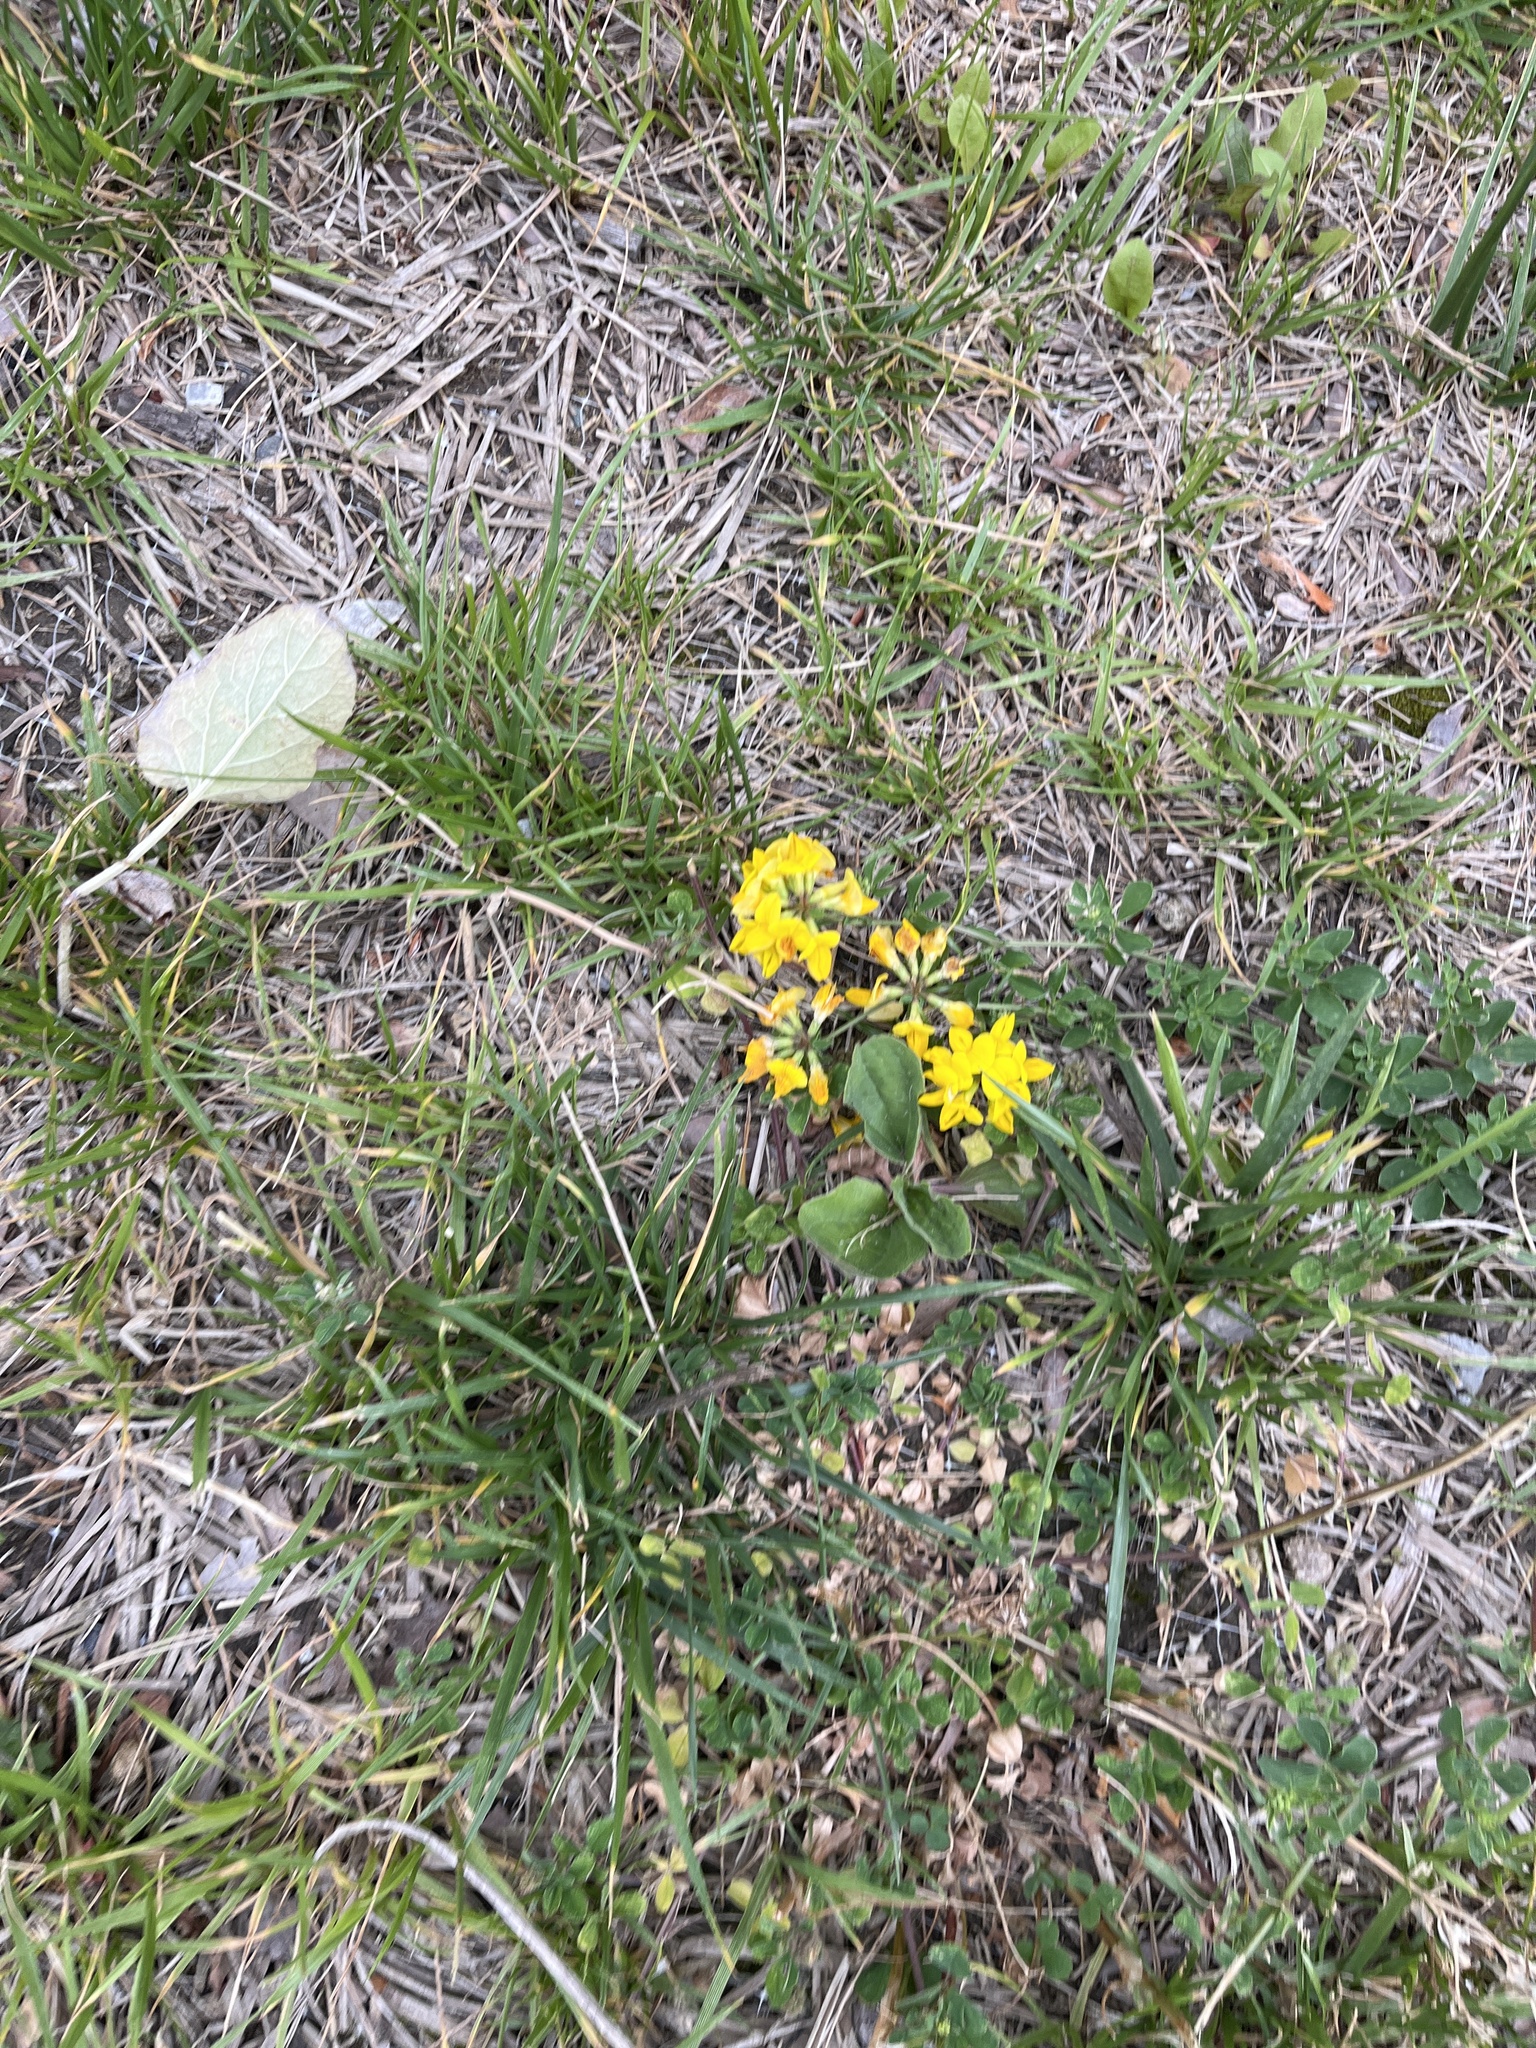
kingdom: Plantae
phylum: Tracheophyta
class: Magnoliopsida
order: Fabales
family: Fabaceae
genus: Lotus
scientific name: Lotus corniculatus
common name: Common bird's-foot-trefoil
